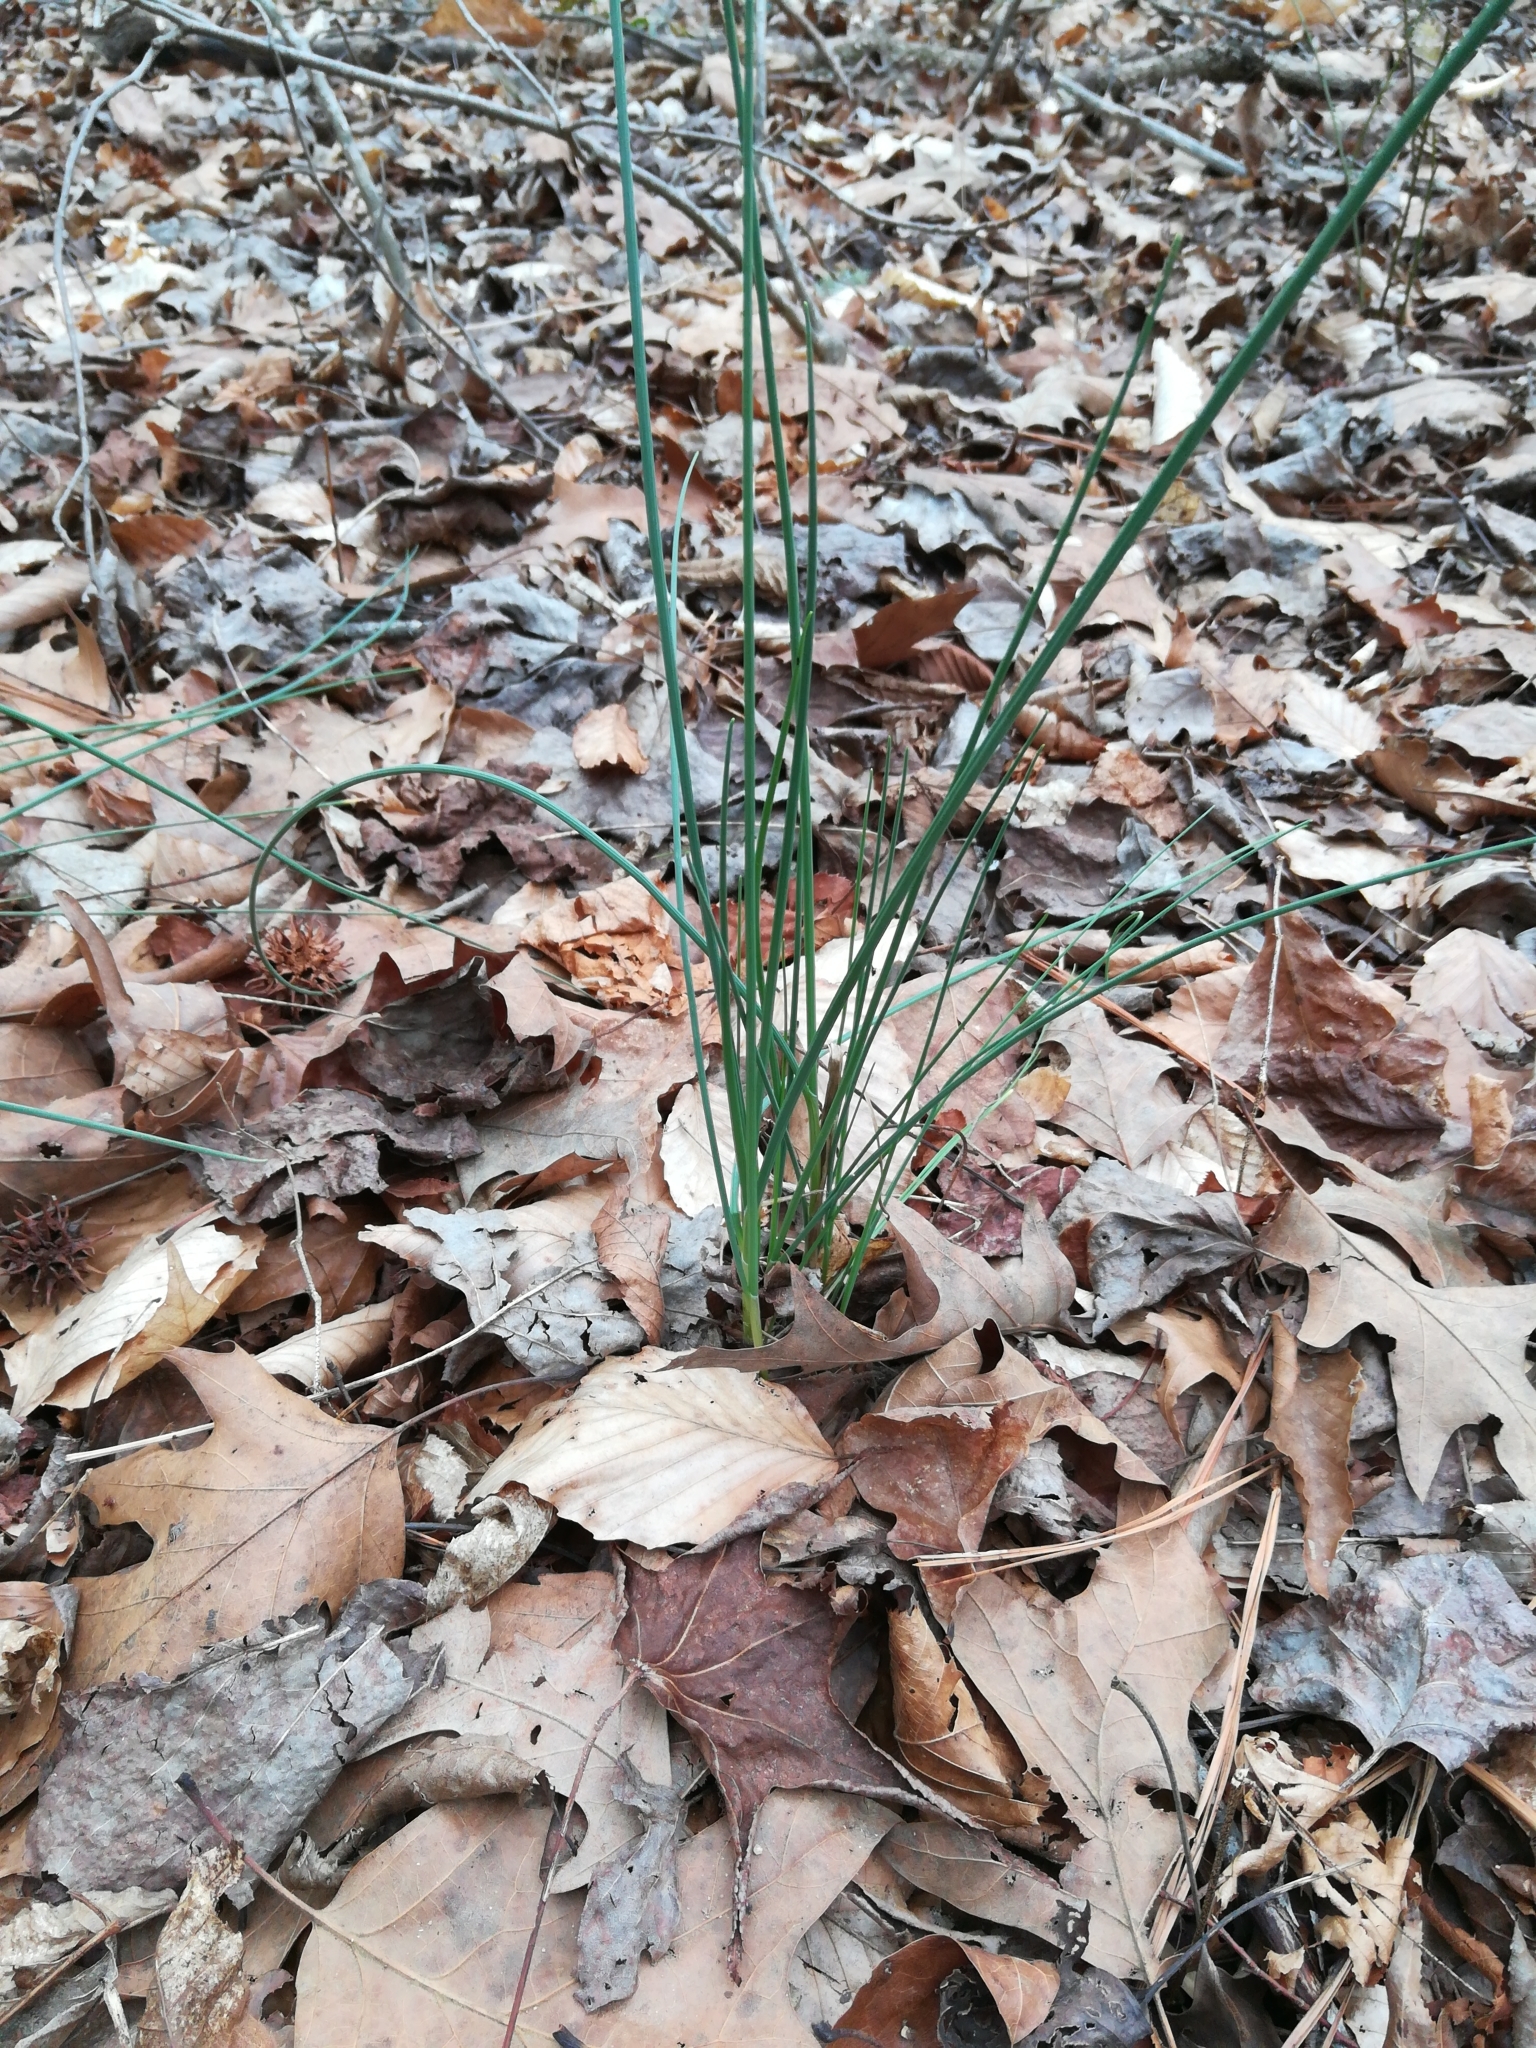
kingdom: Plantae
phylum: Tracheophyta
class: Liliopsida
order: Asparagales
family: Amaryllidaceae
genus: Allium
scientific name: Allium vineale
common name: Crow garlic
